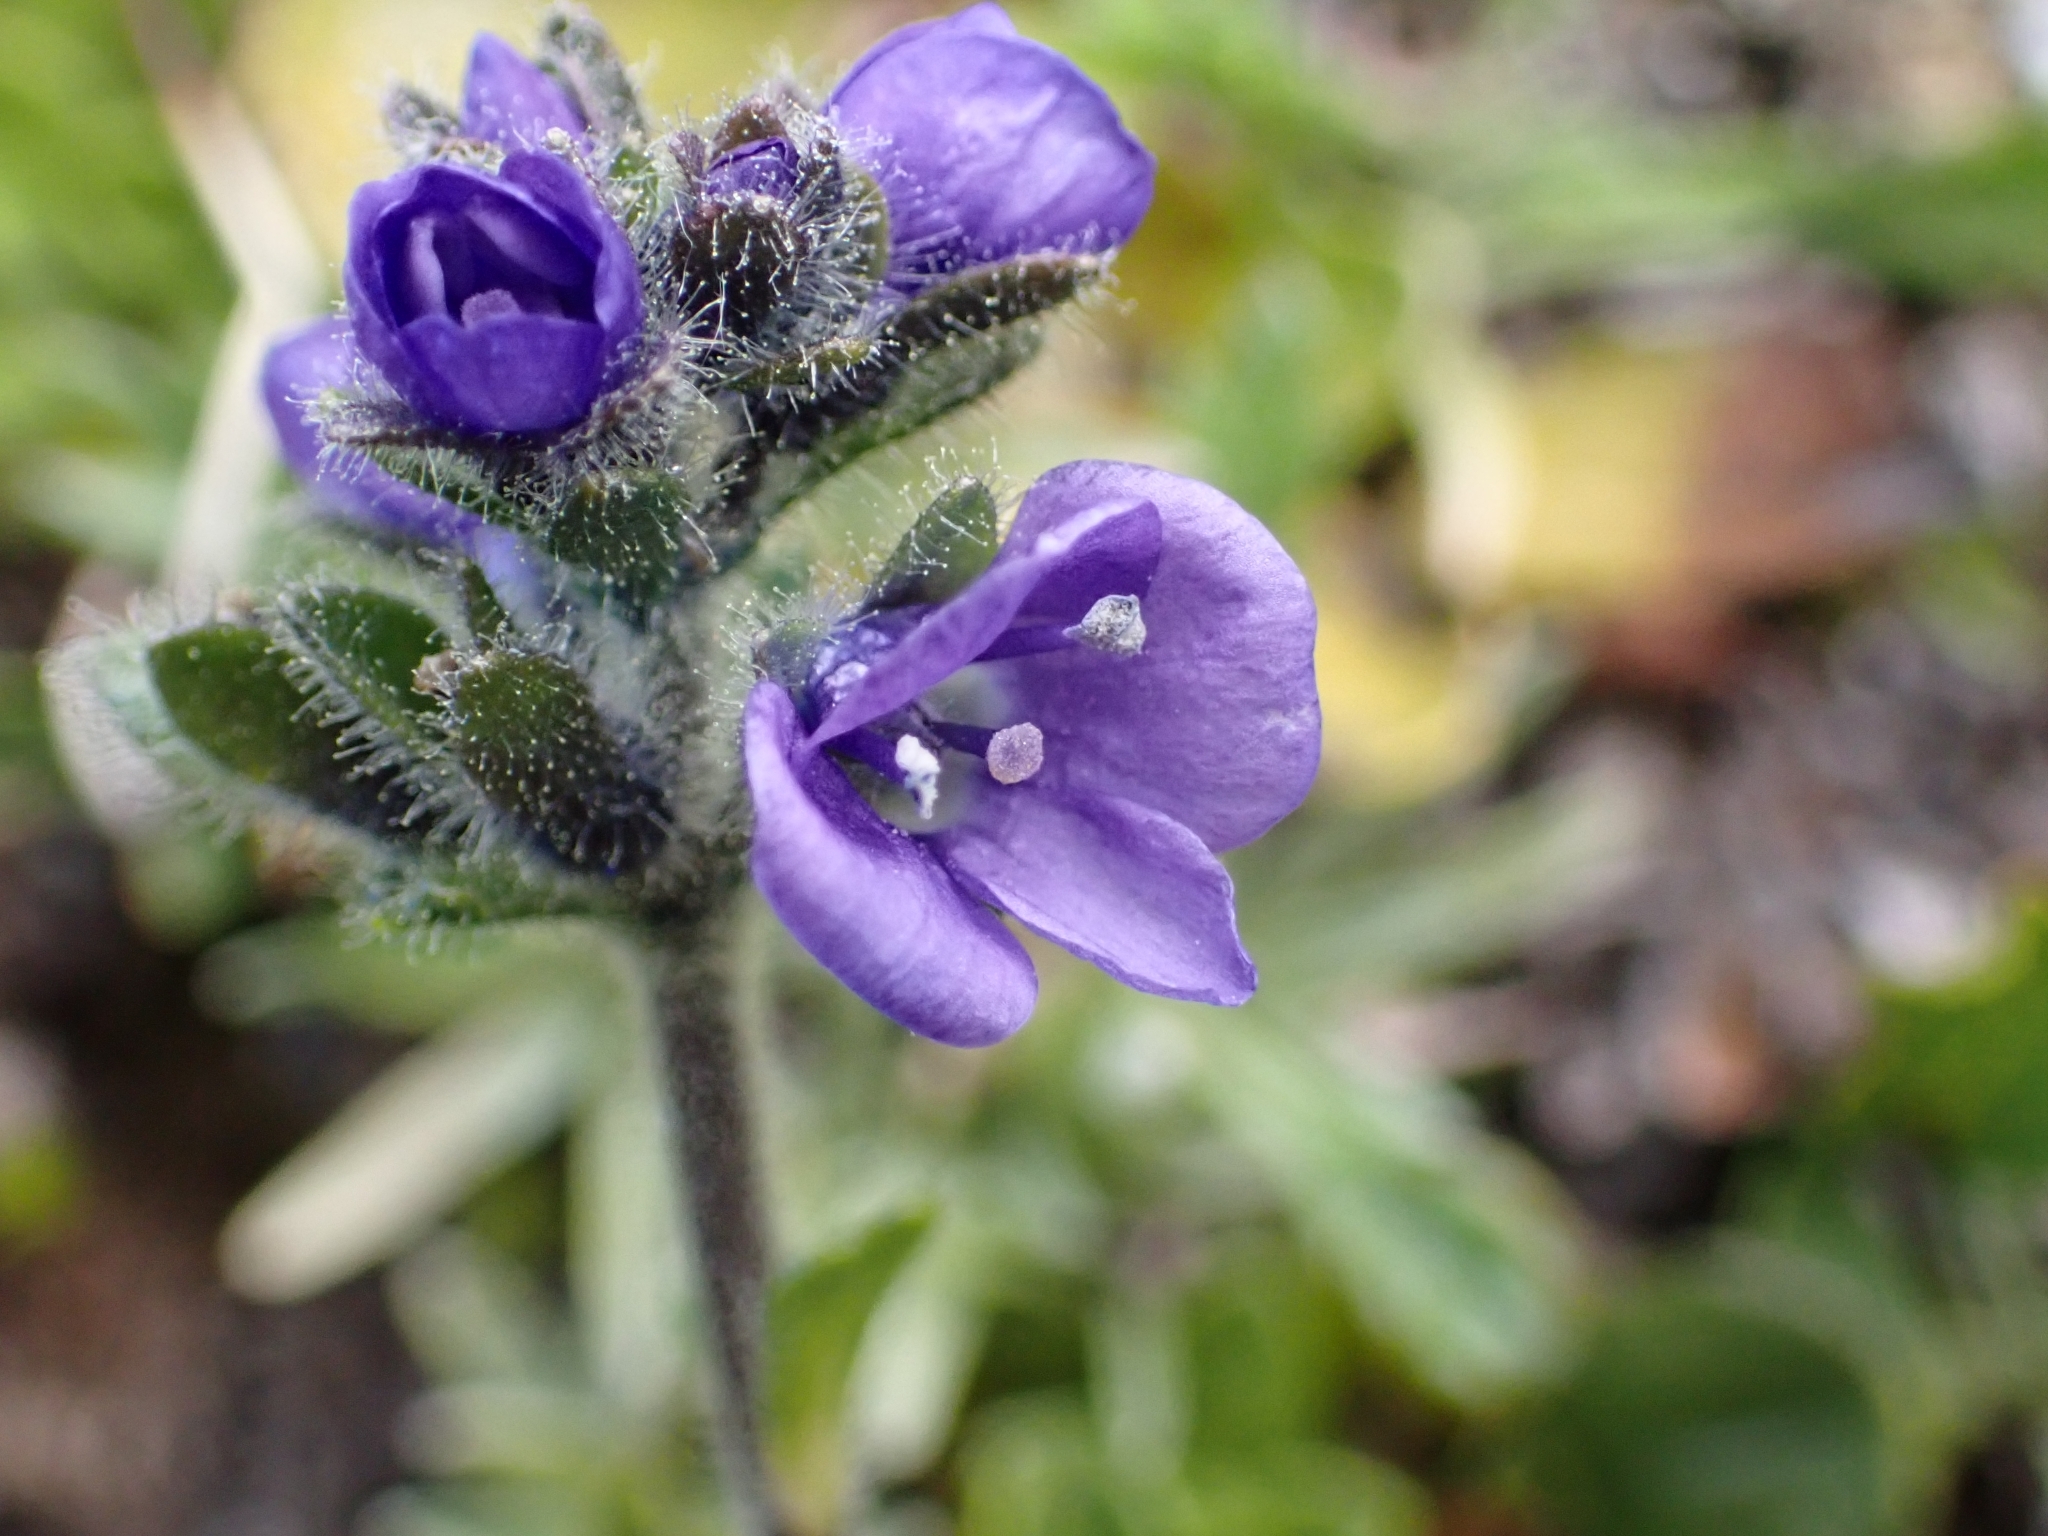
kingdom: Plantae
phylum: Tracheophyta
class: Magnoliopsida
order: Lamiales
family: Plantaginaceae
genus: Veronica
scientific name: Veronica bellidioides
